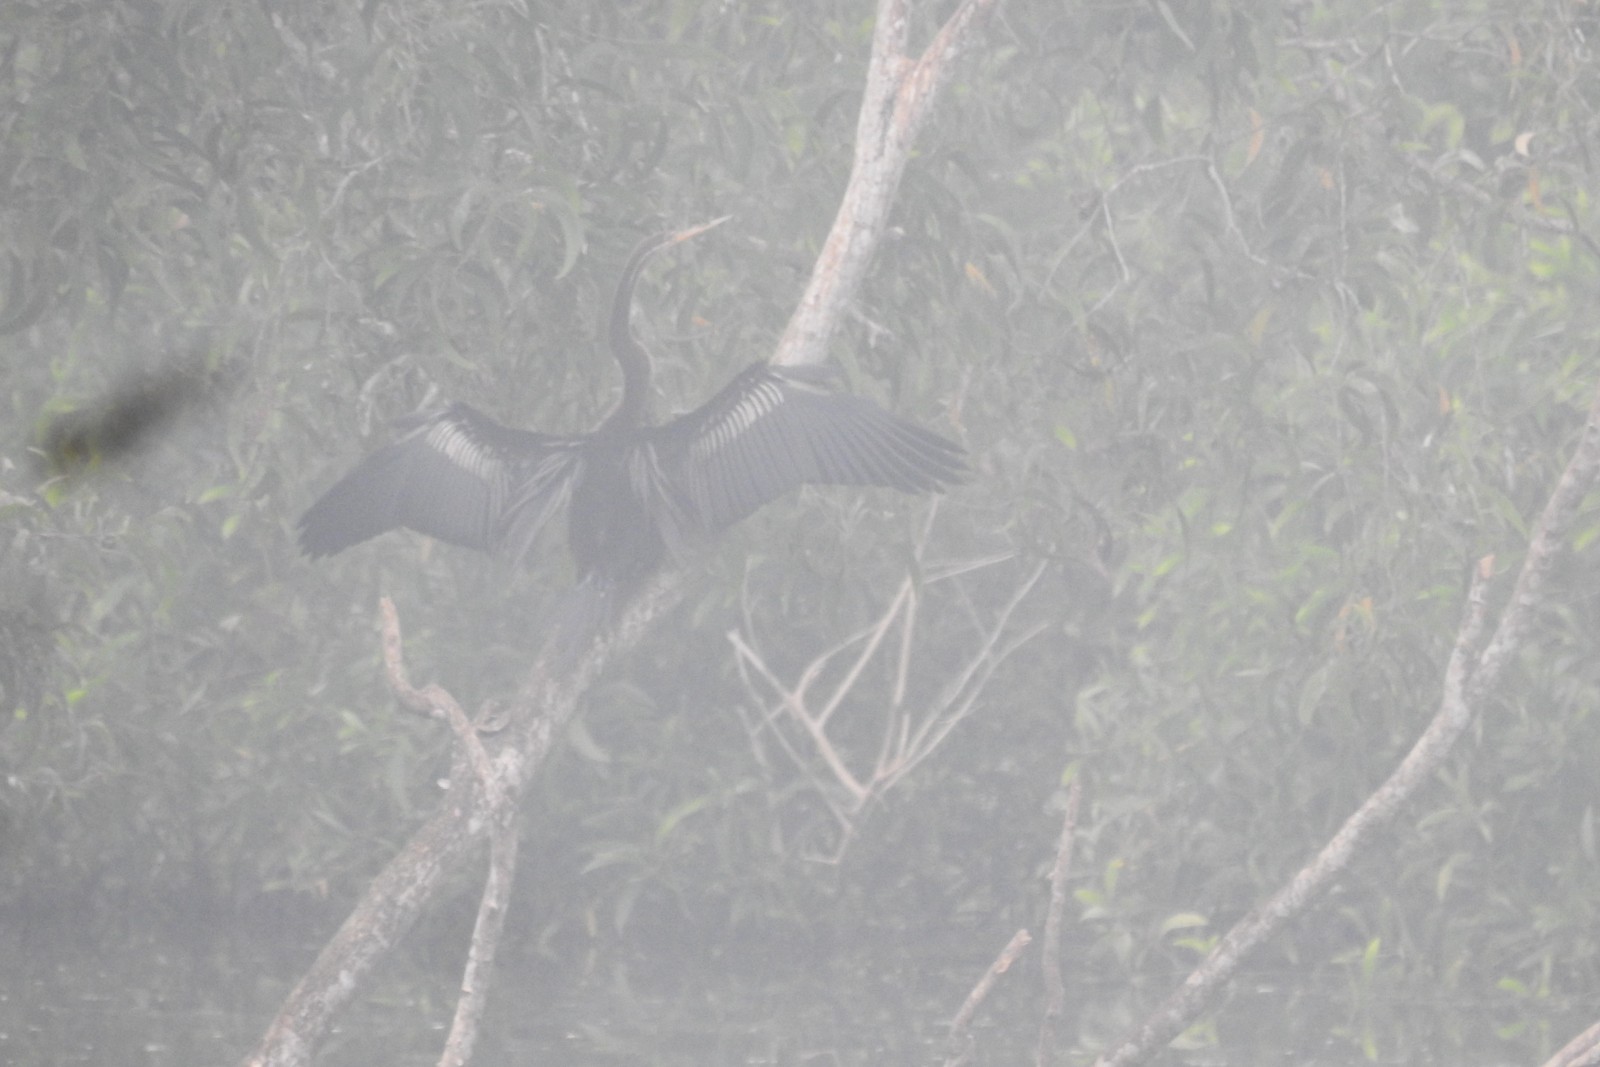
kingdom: Animalia
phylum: Chordata
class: Aves
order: Suliformes
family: Anhingidae
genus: Anhinga
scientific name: Anhinga melanogaster
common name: Oriental darter
